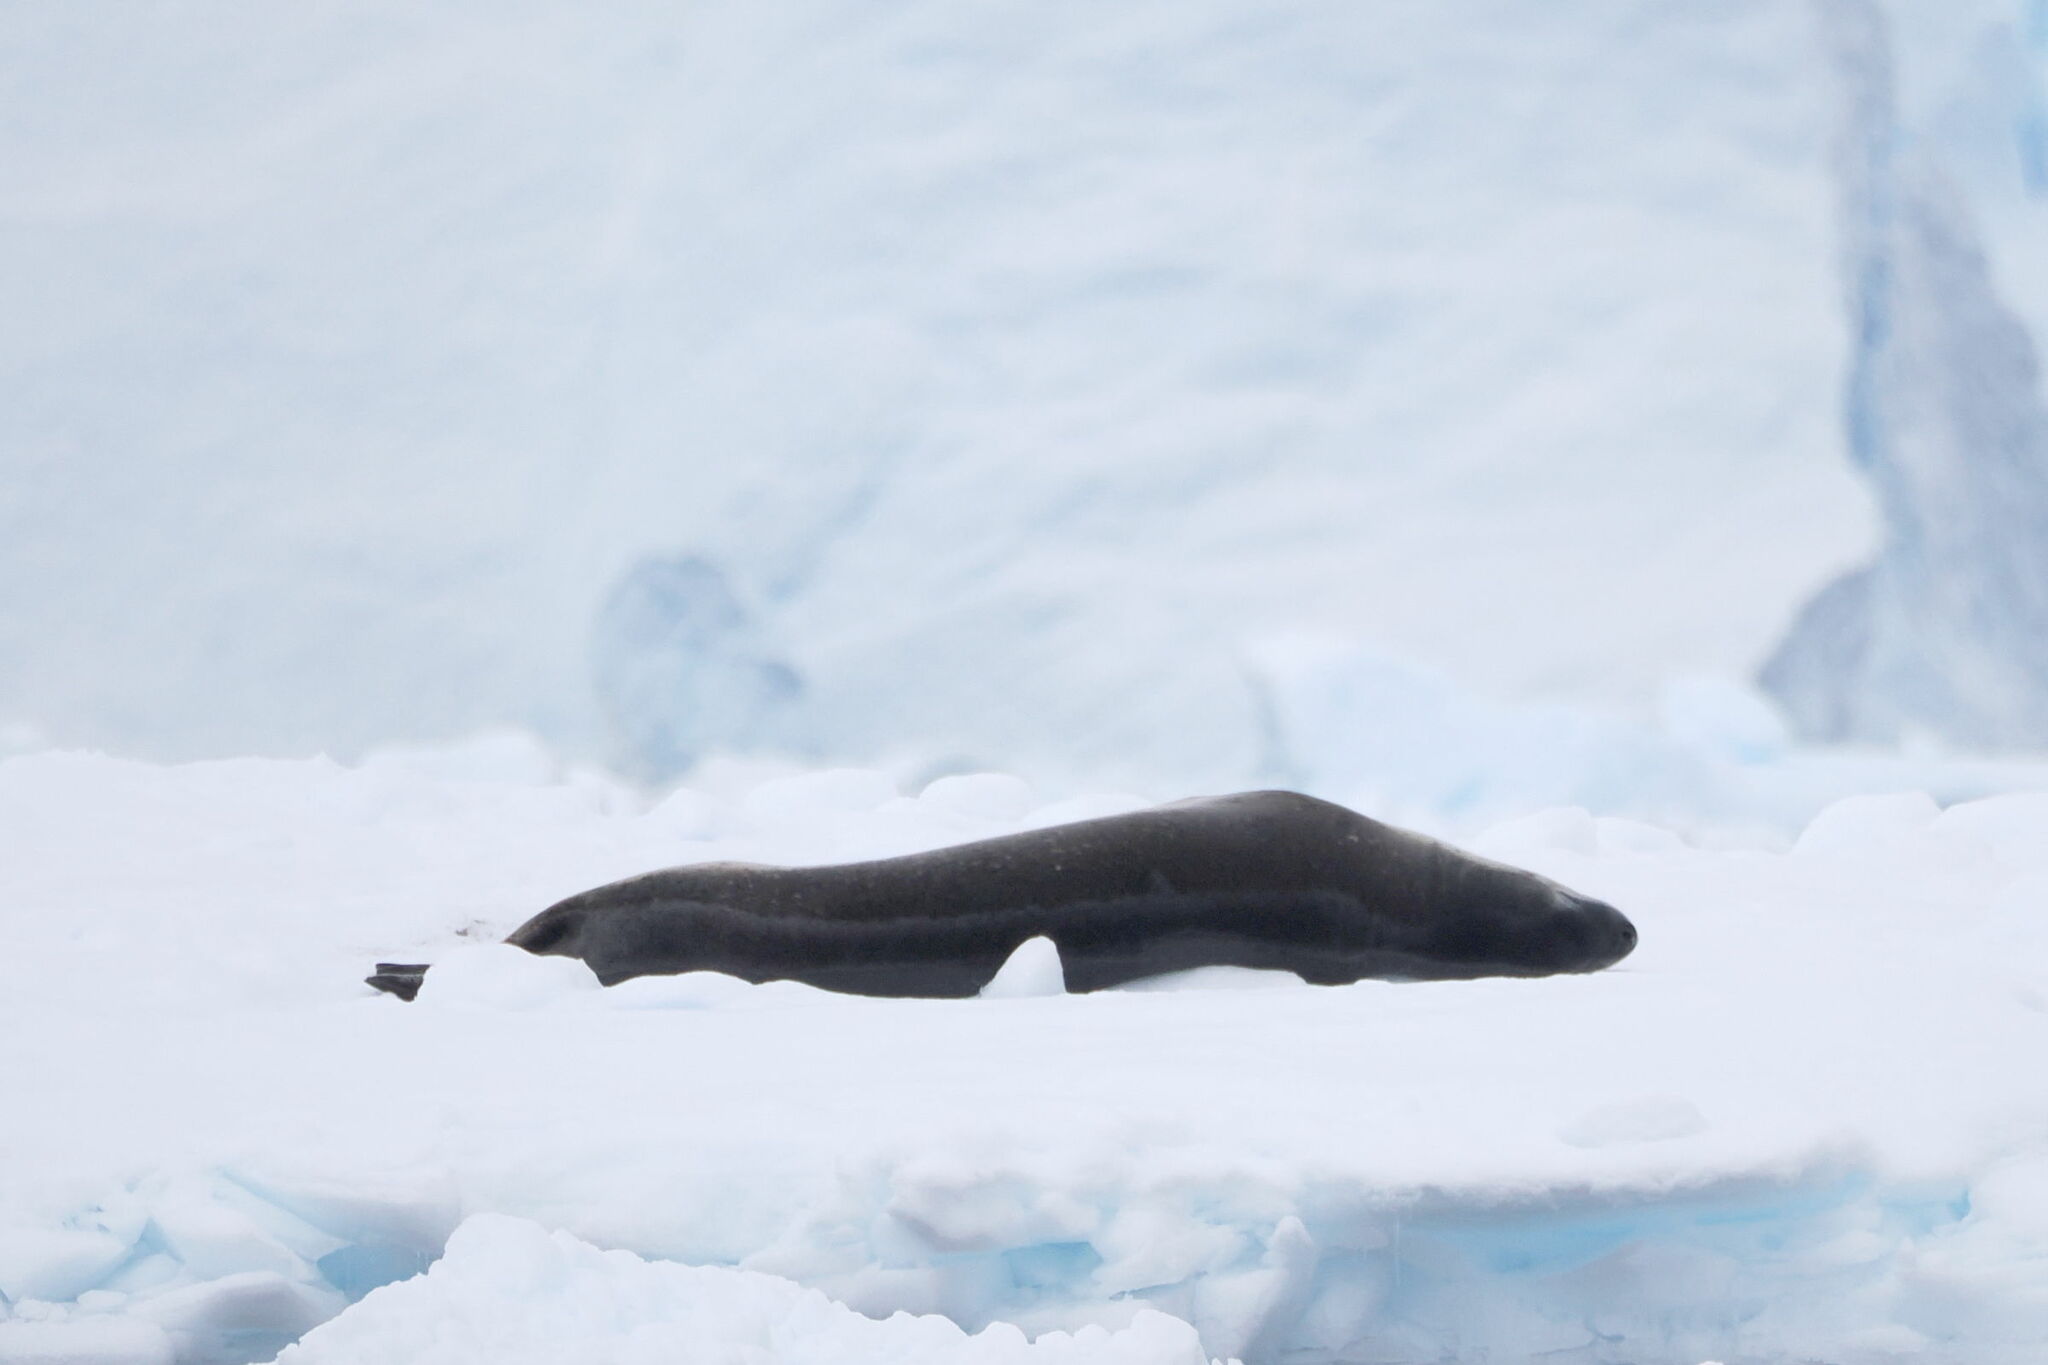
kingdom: Animalia
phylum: Chordata
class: Mammalia
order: Carnivora
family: Phocidae
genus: Hydrurga
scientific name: Hydrurga leptonyx
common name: Leopard seal
